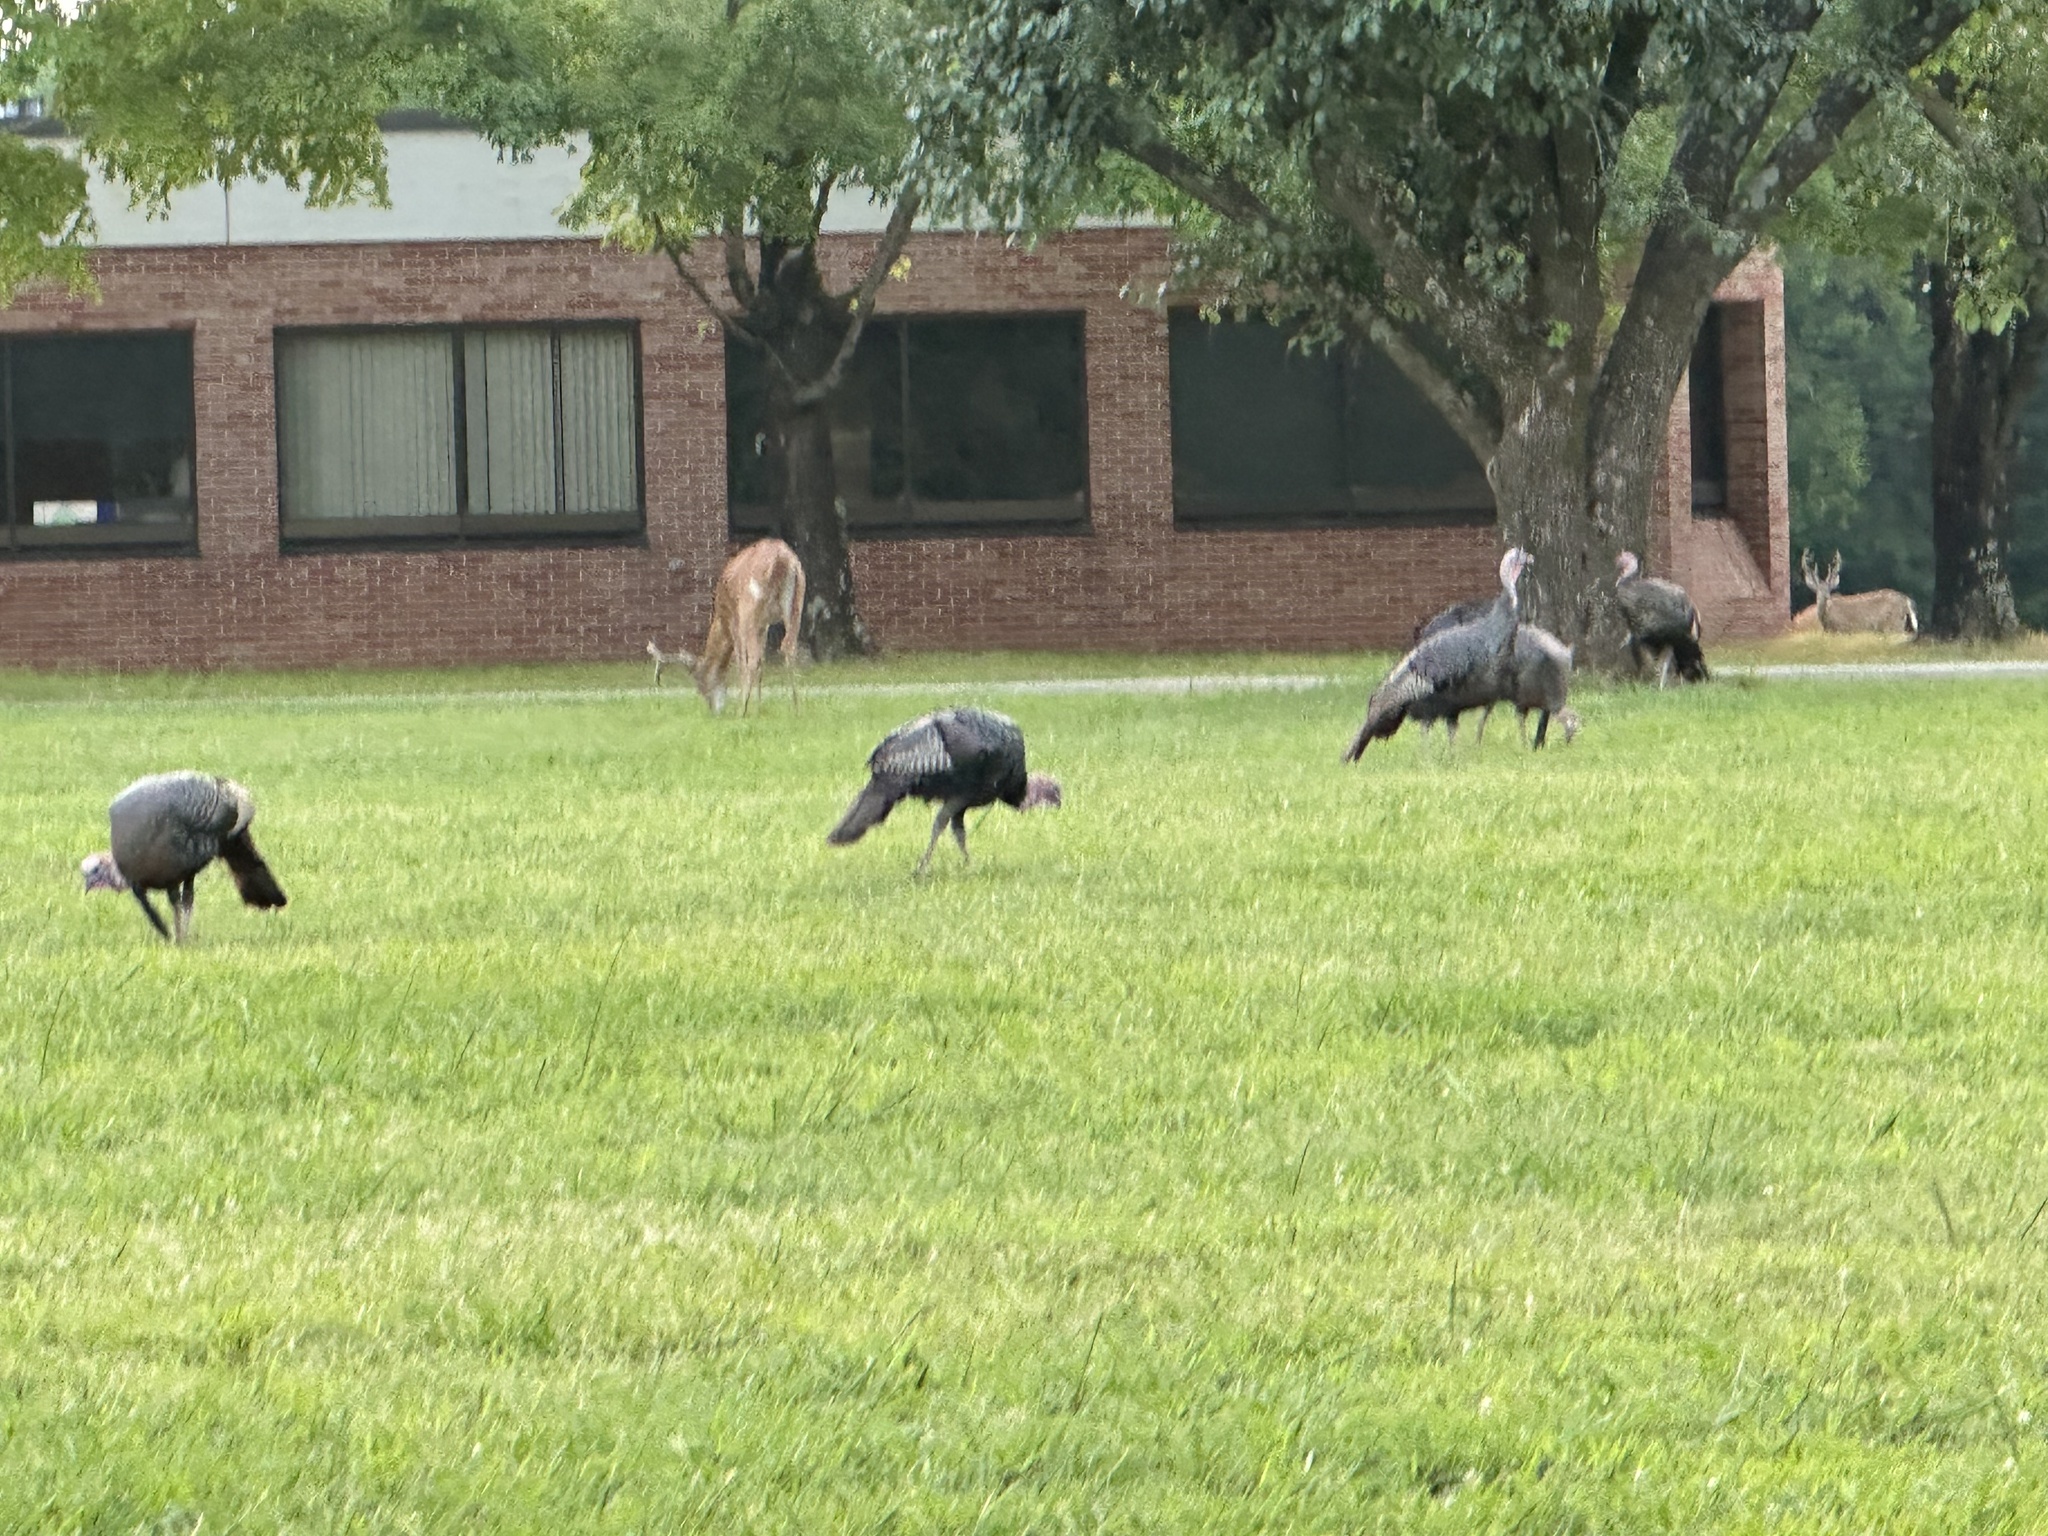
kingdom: Animalia
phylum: Chordata
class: Aves
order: Galliformes
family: Phasianidae
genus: Meleagris
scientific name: Meleagris gallopavo
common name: Wild turkey
